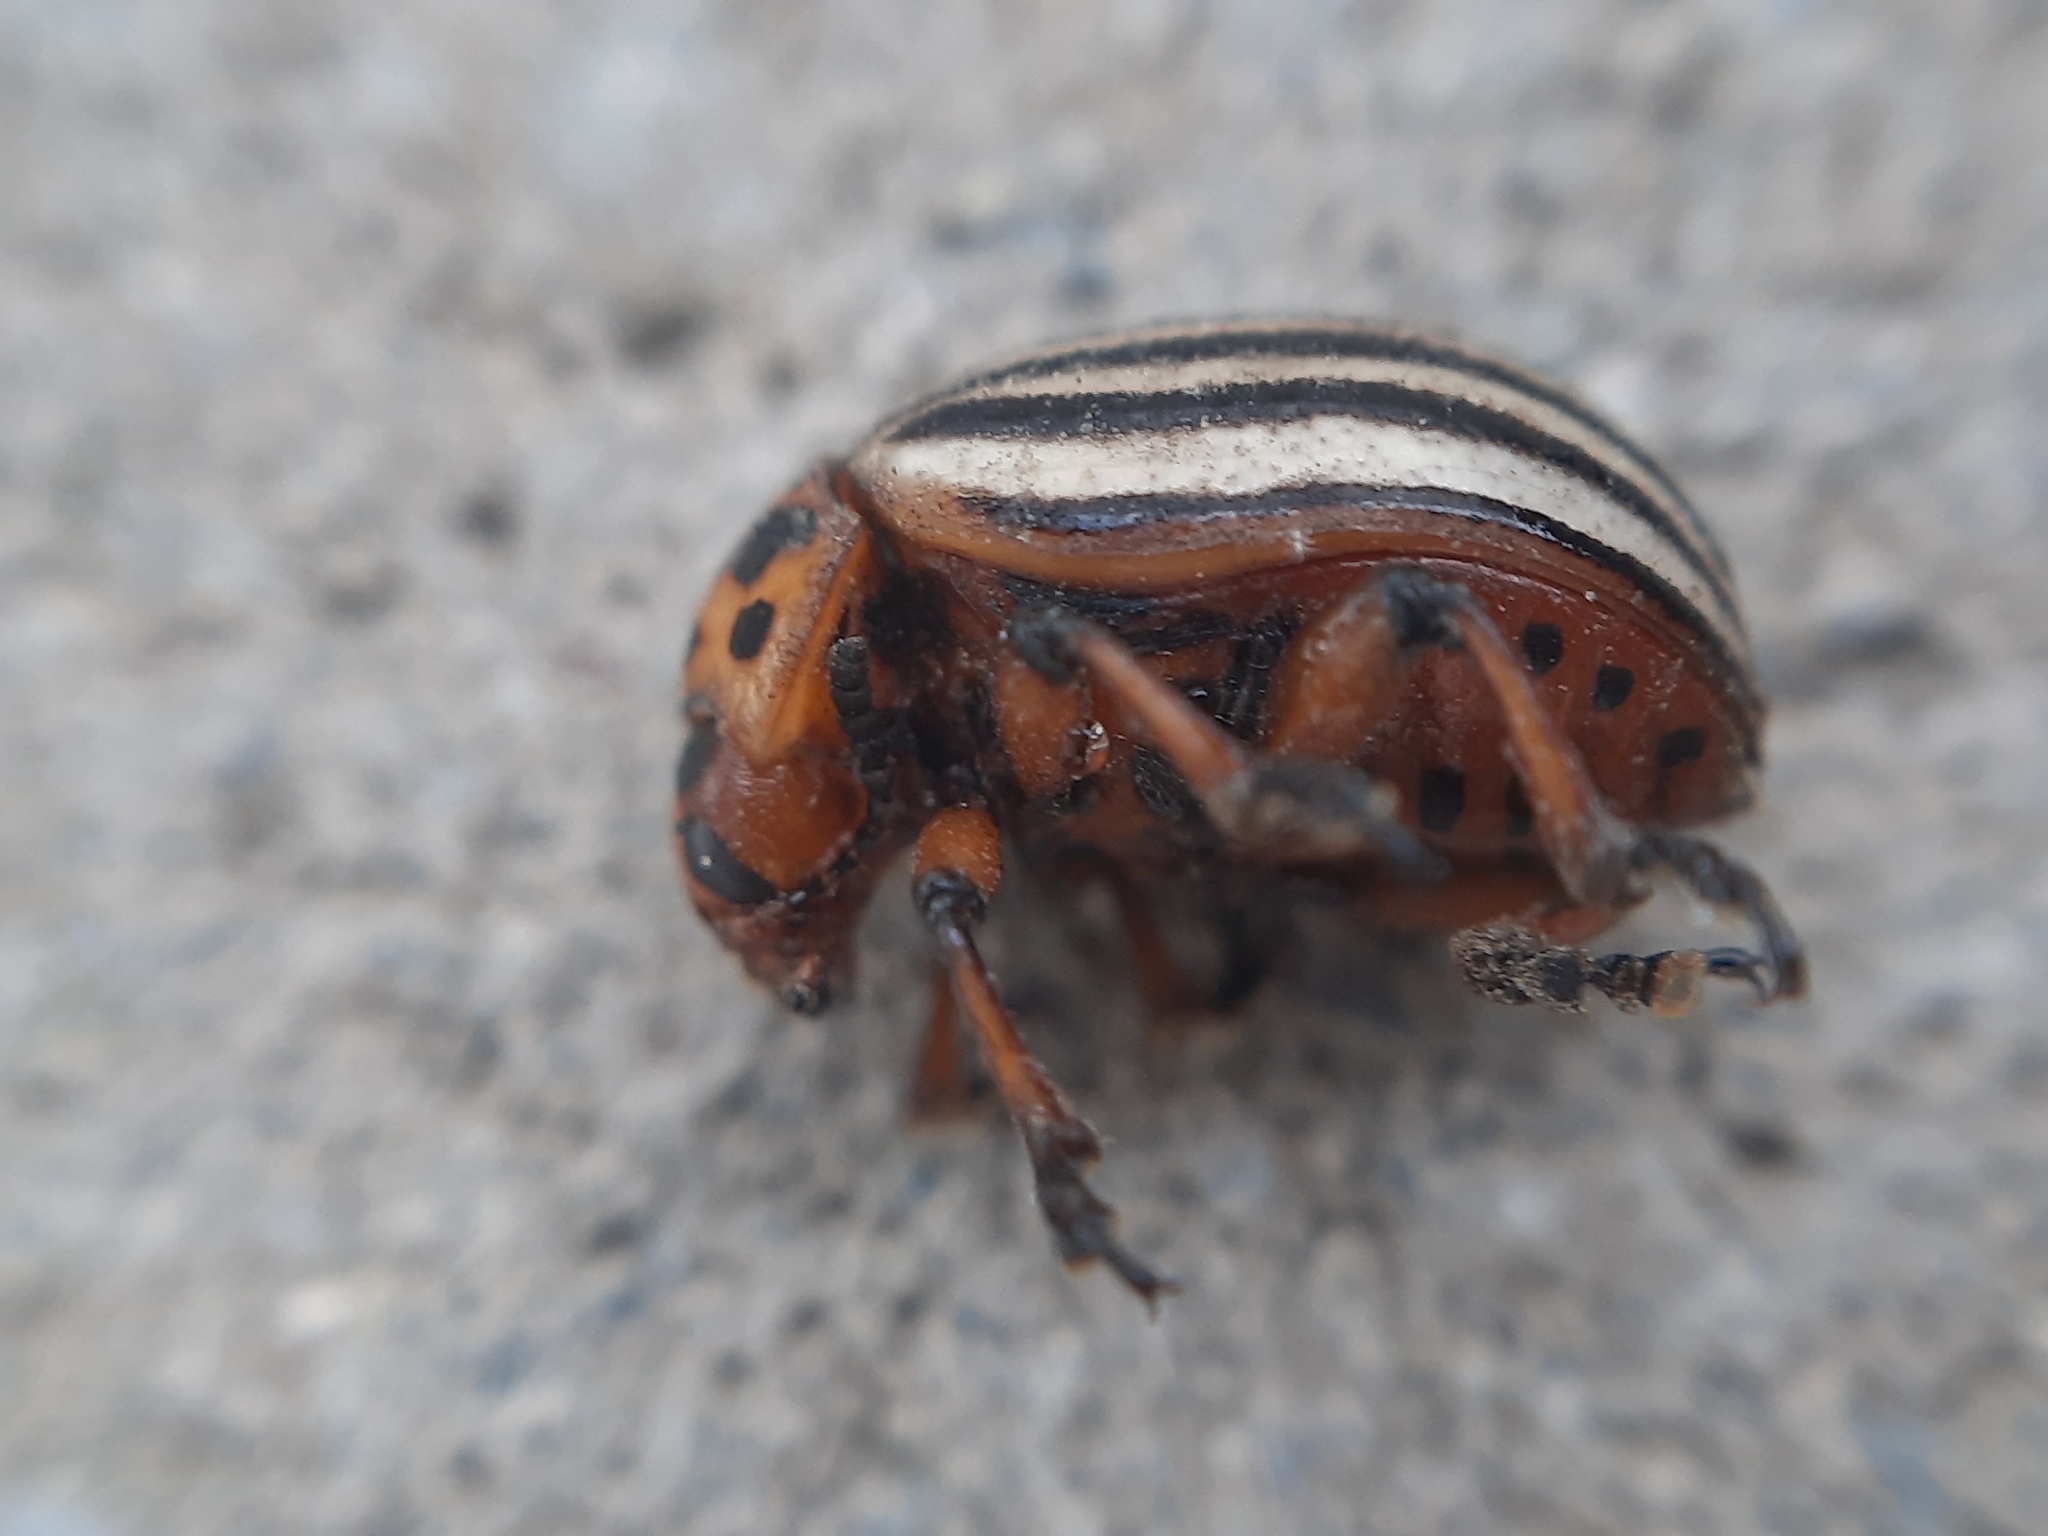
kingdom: Animalia
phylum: Arthropoda
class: Insecta
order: Coleoptera
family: Chrysomelidae
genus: Leptinotarsa
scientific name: Leptinotarsa decemlineata
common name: Colorado potato beetle
